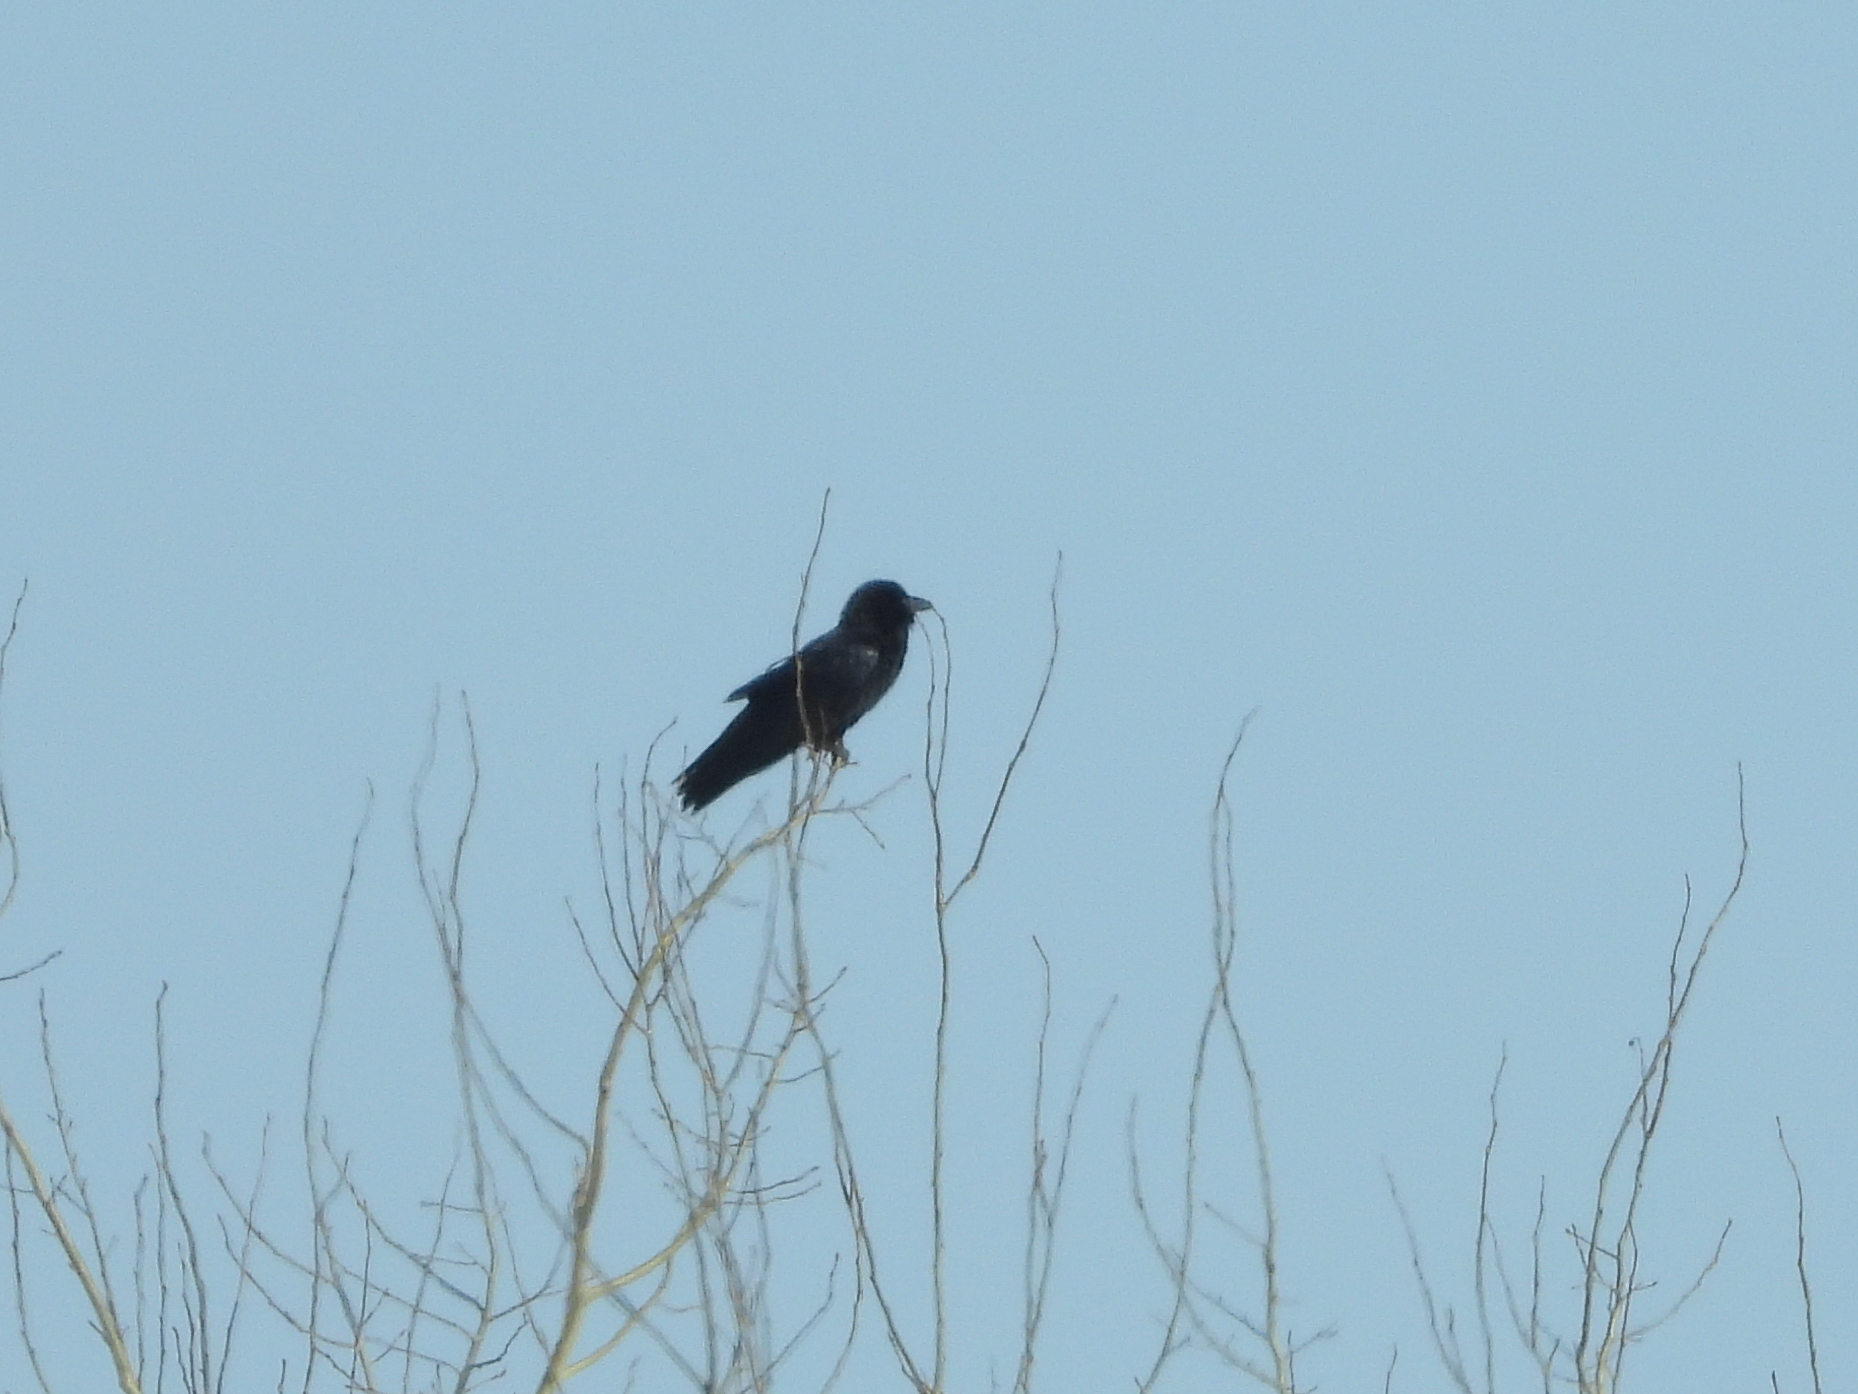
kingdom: Animalia
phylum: Chordata
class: Aves
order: Passeriformes
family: Corvidae
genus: Corvus
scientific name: Corvus corax
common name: Common raven
